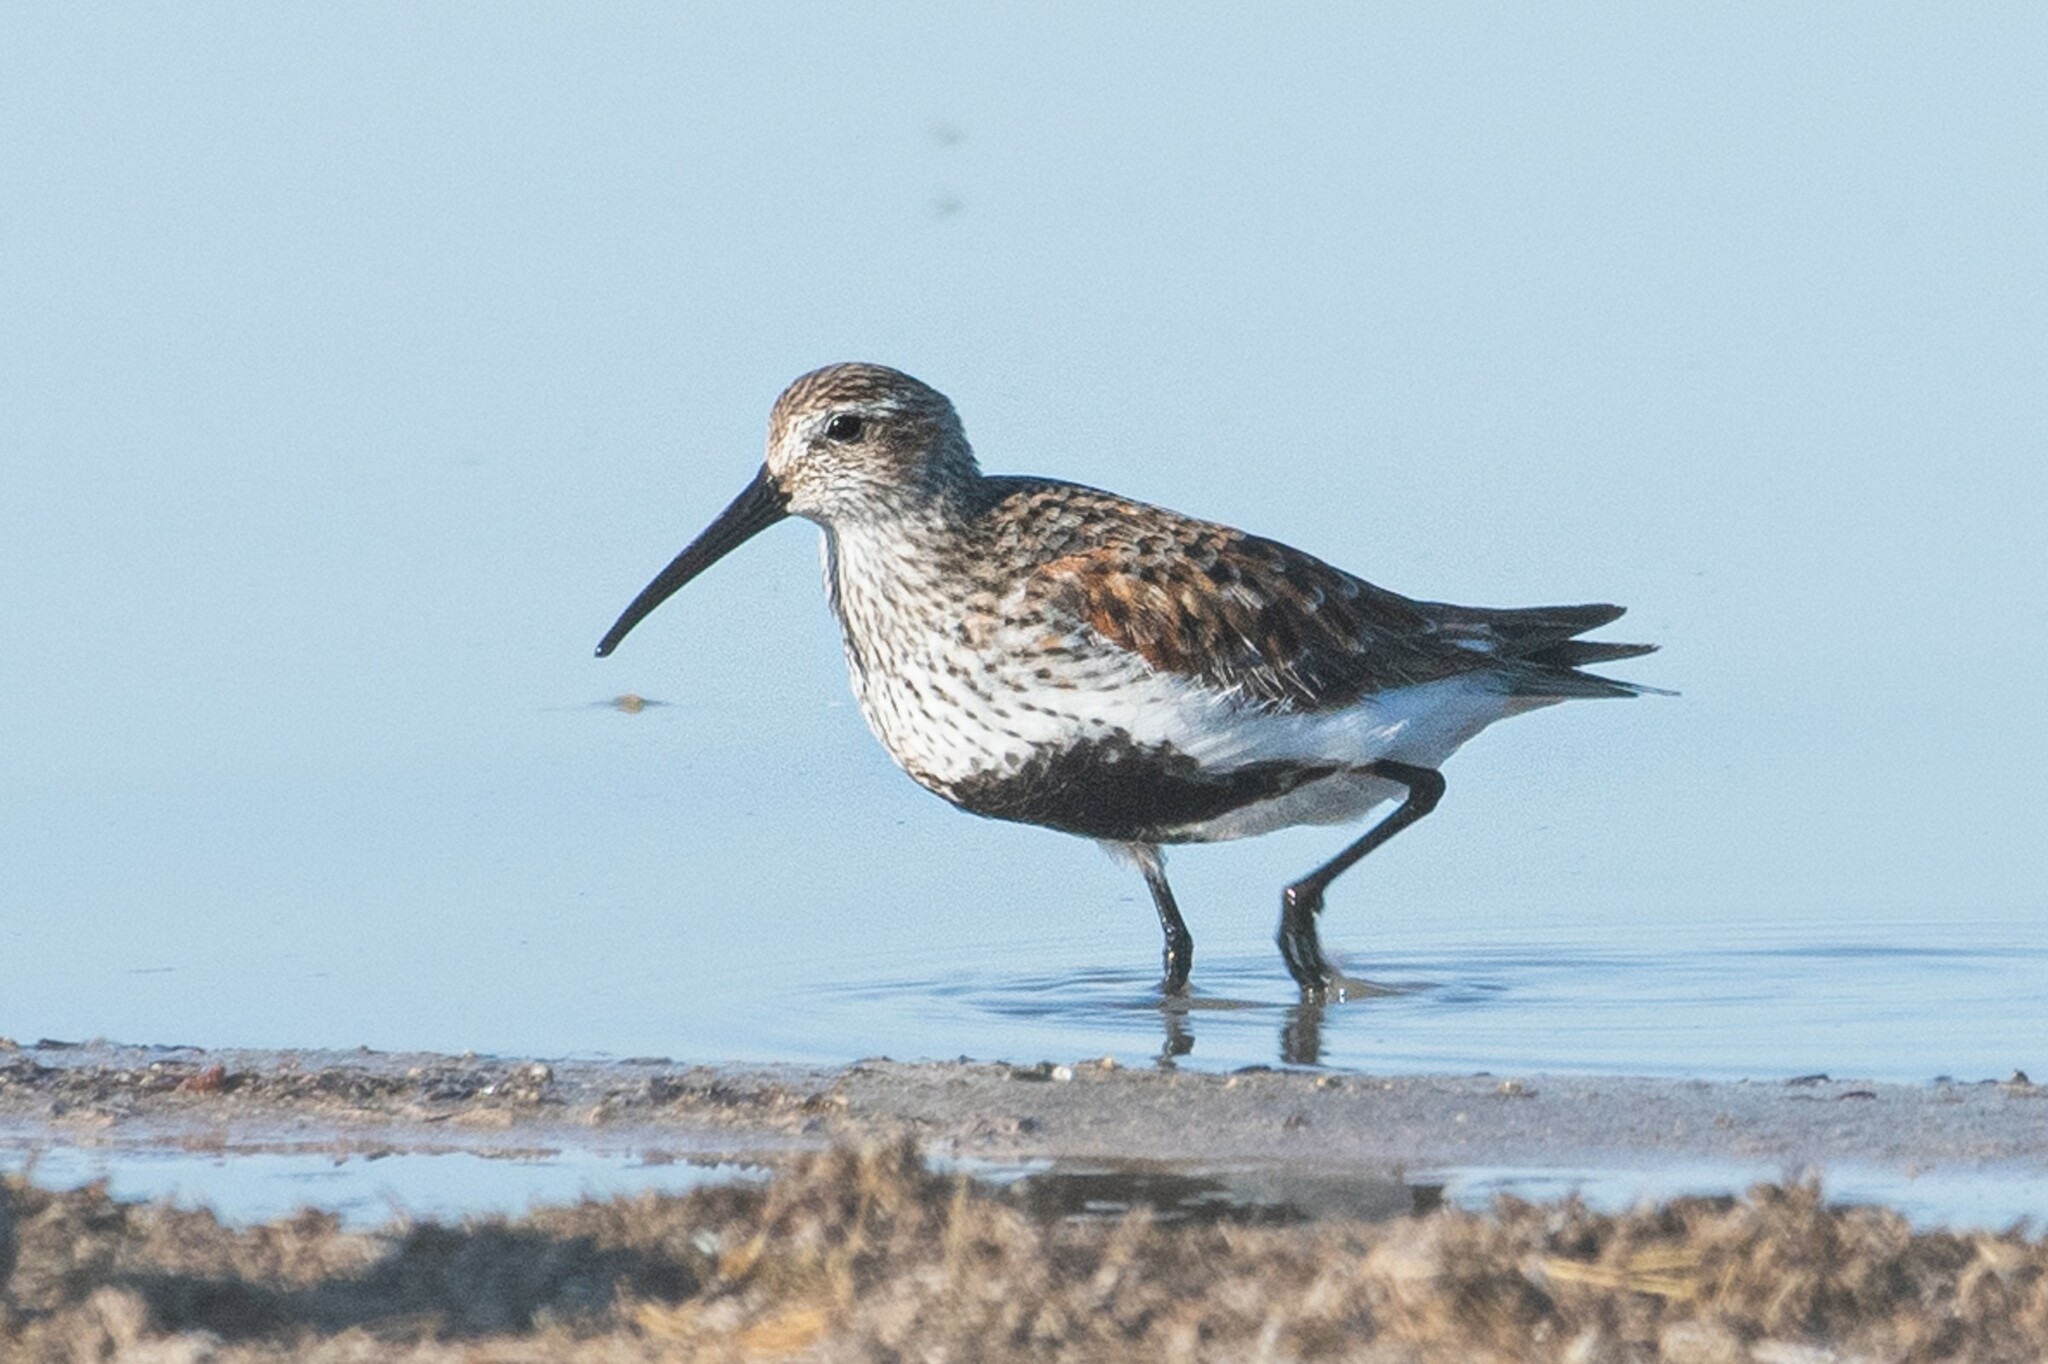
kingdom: Animalia
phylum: Chordata
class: Aves
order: Charadriiformes
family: Scolopacidae
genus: Calidris
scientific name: Calidris alpina
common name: Dunlin
